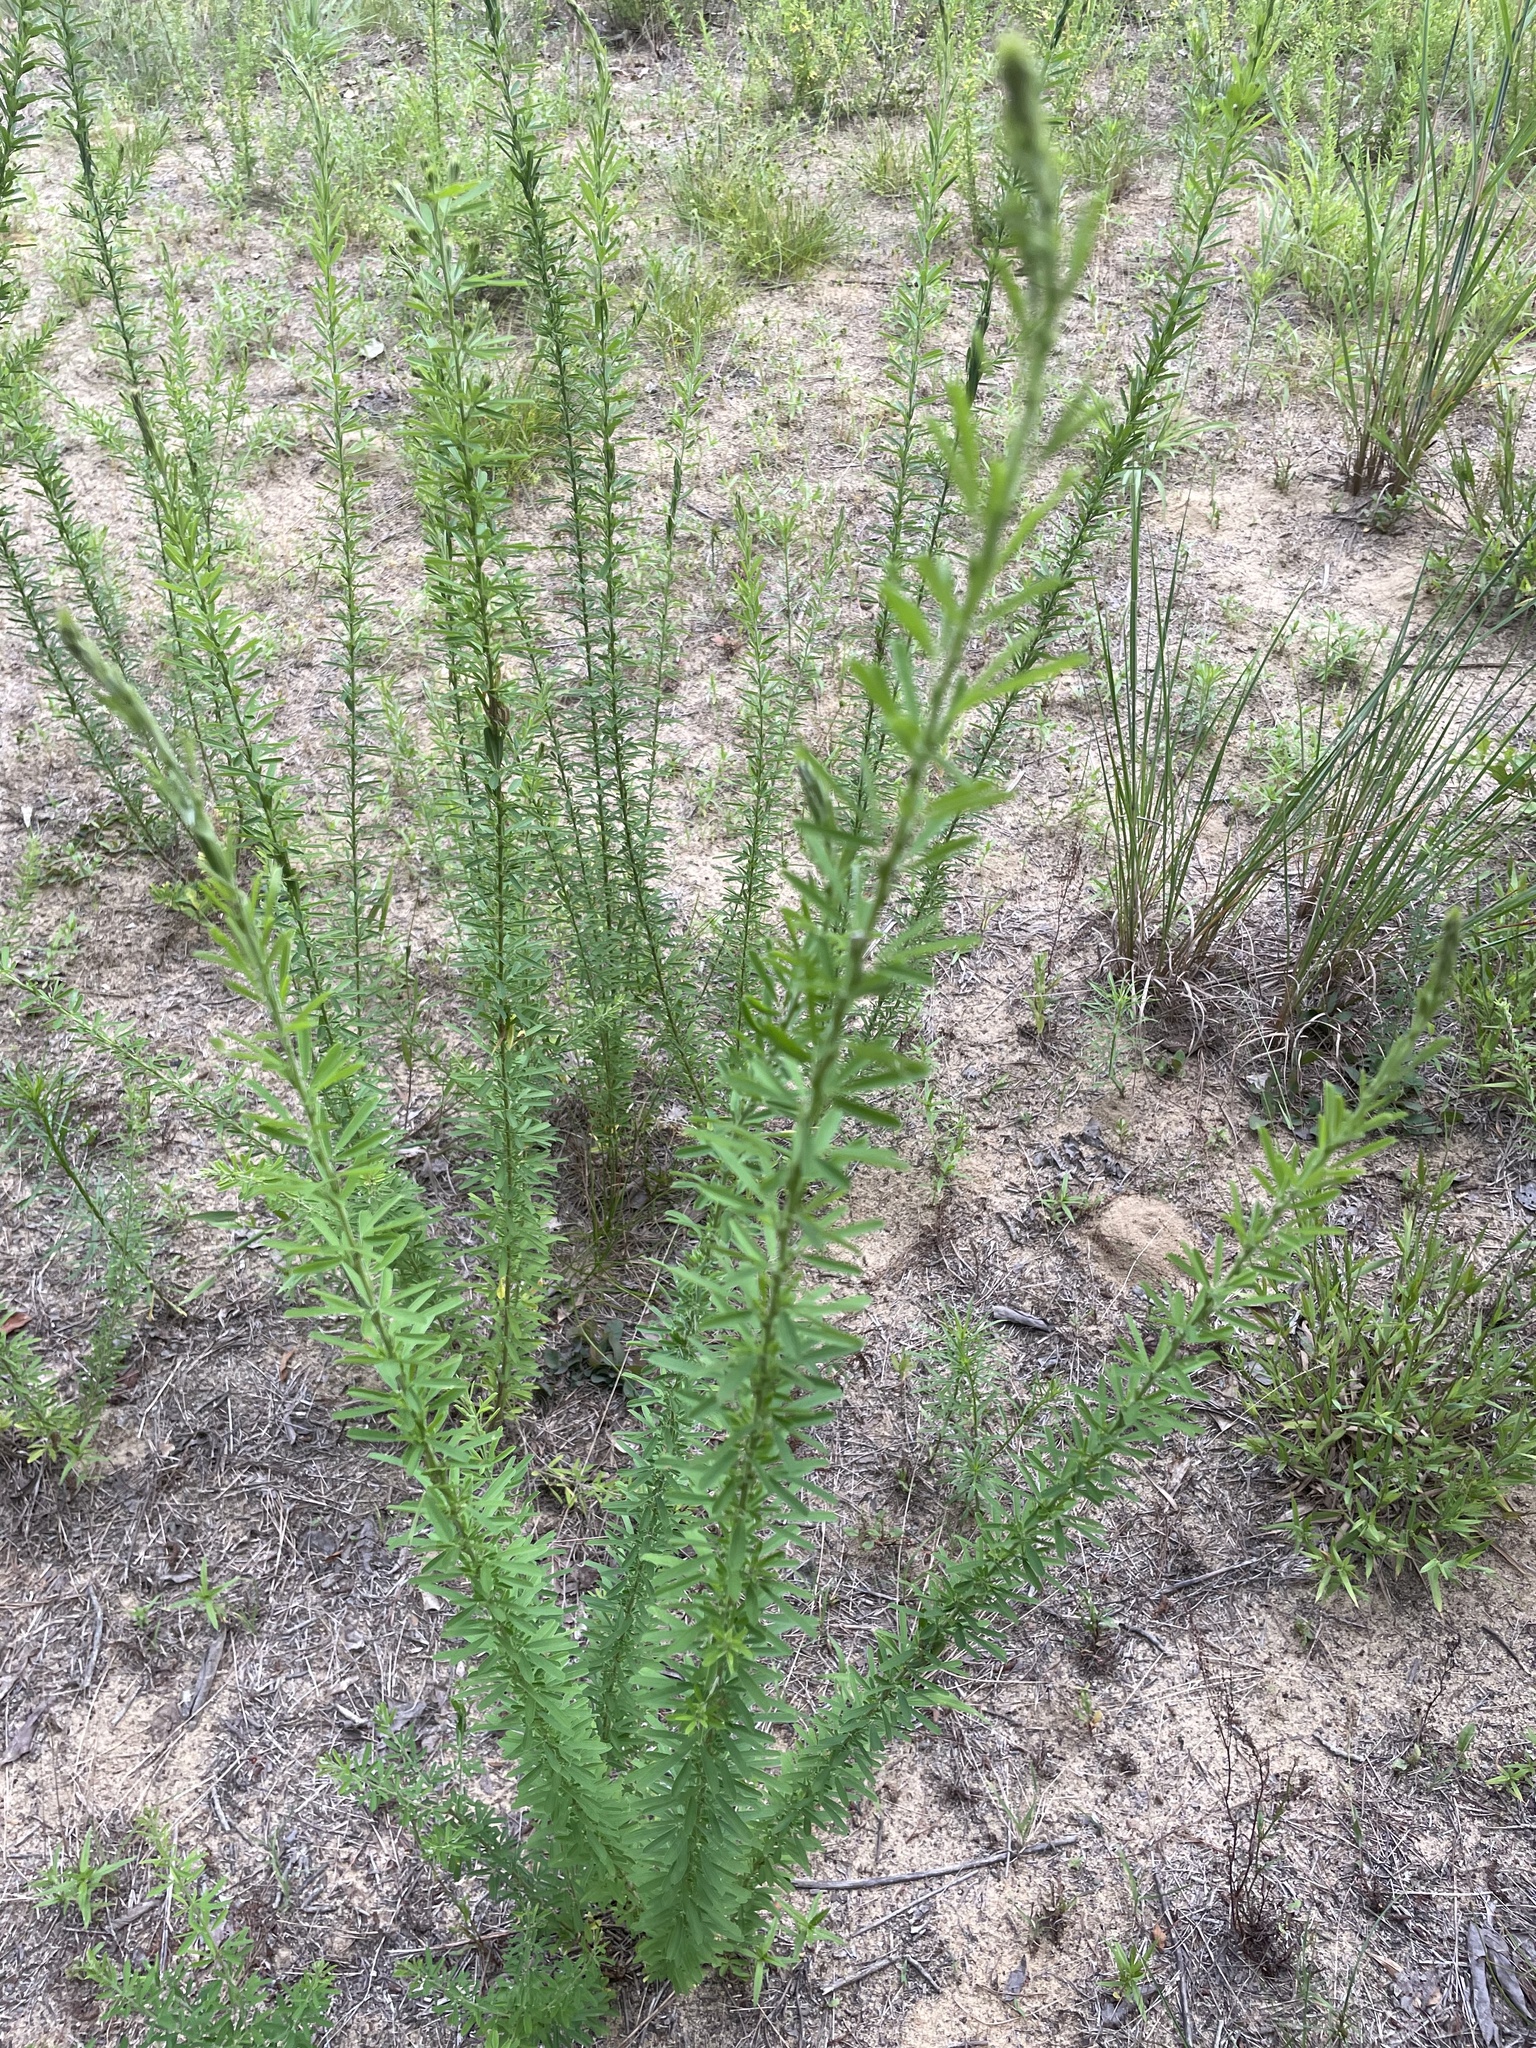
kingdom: Plantae
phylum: Tracheophyta
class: Magnoliopsida
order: Fabales
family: Fabaceae
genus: Lespedeza
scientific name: Lespedeza cuneata
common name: Chinese bush-clover
